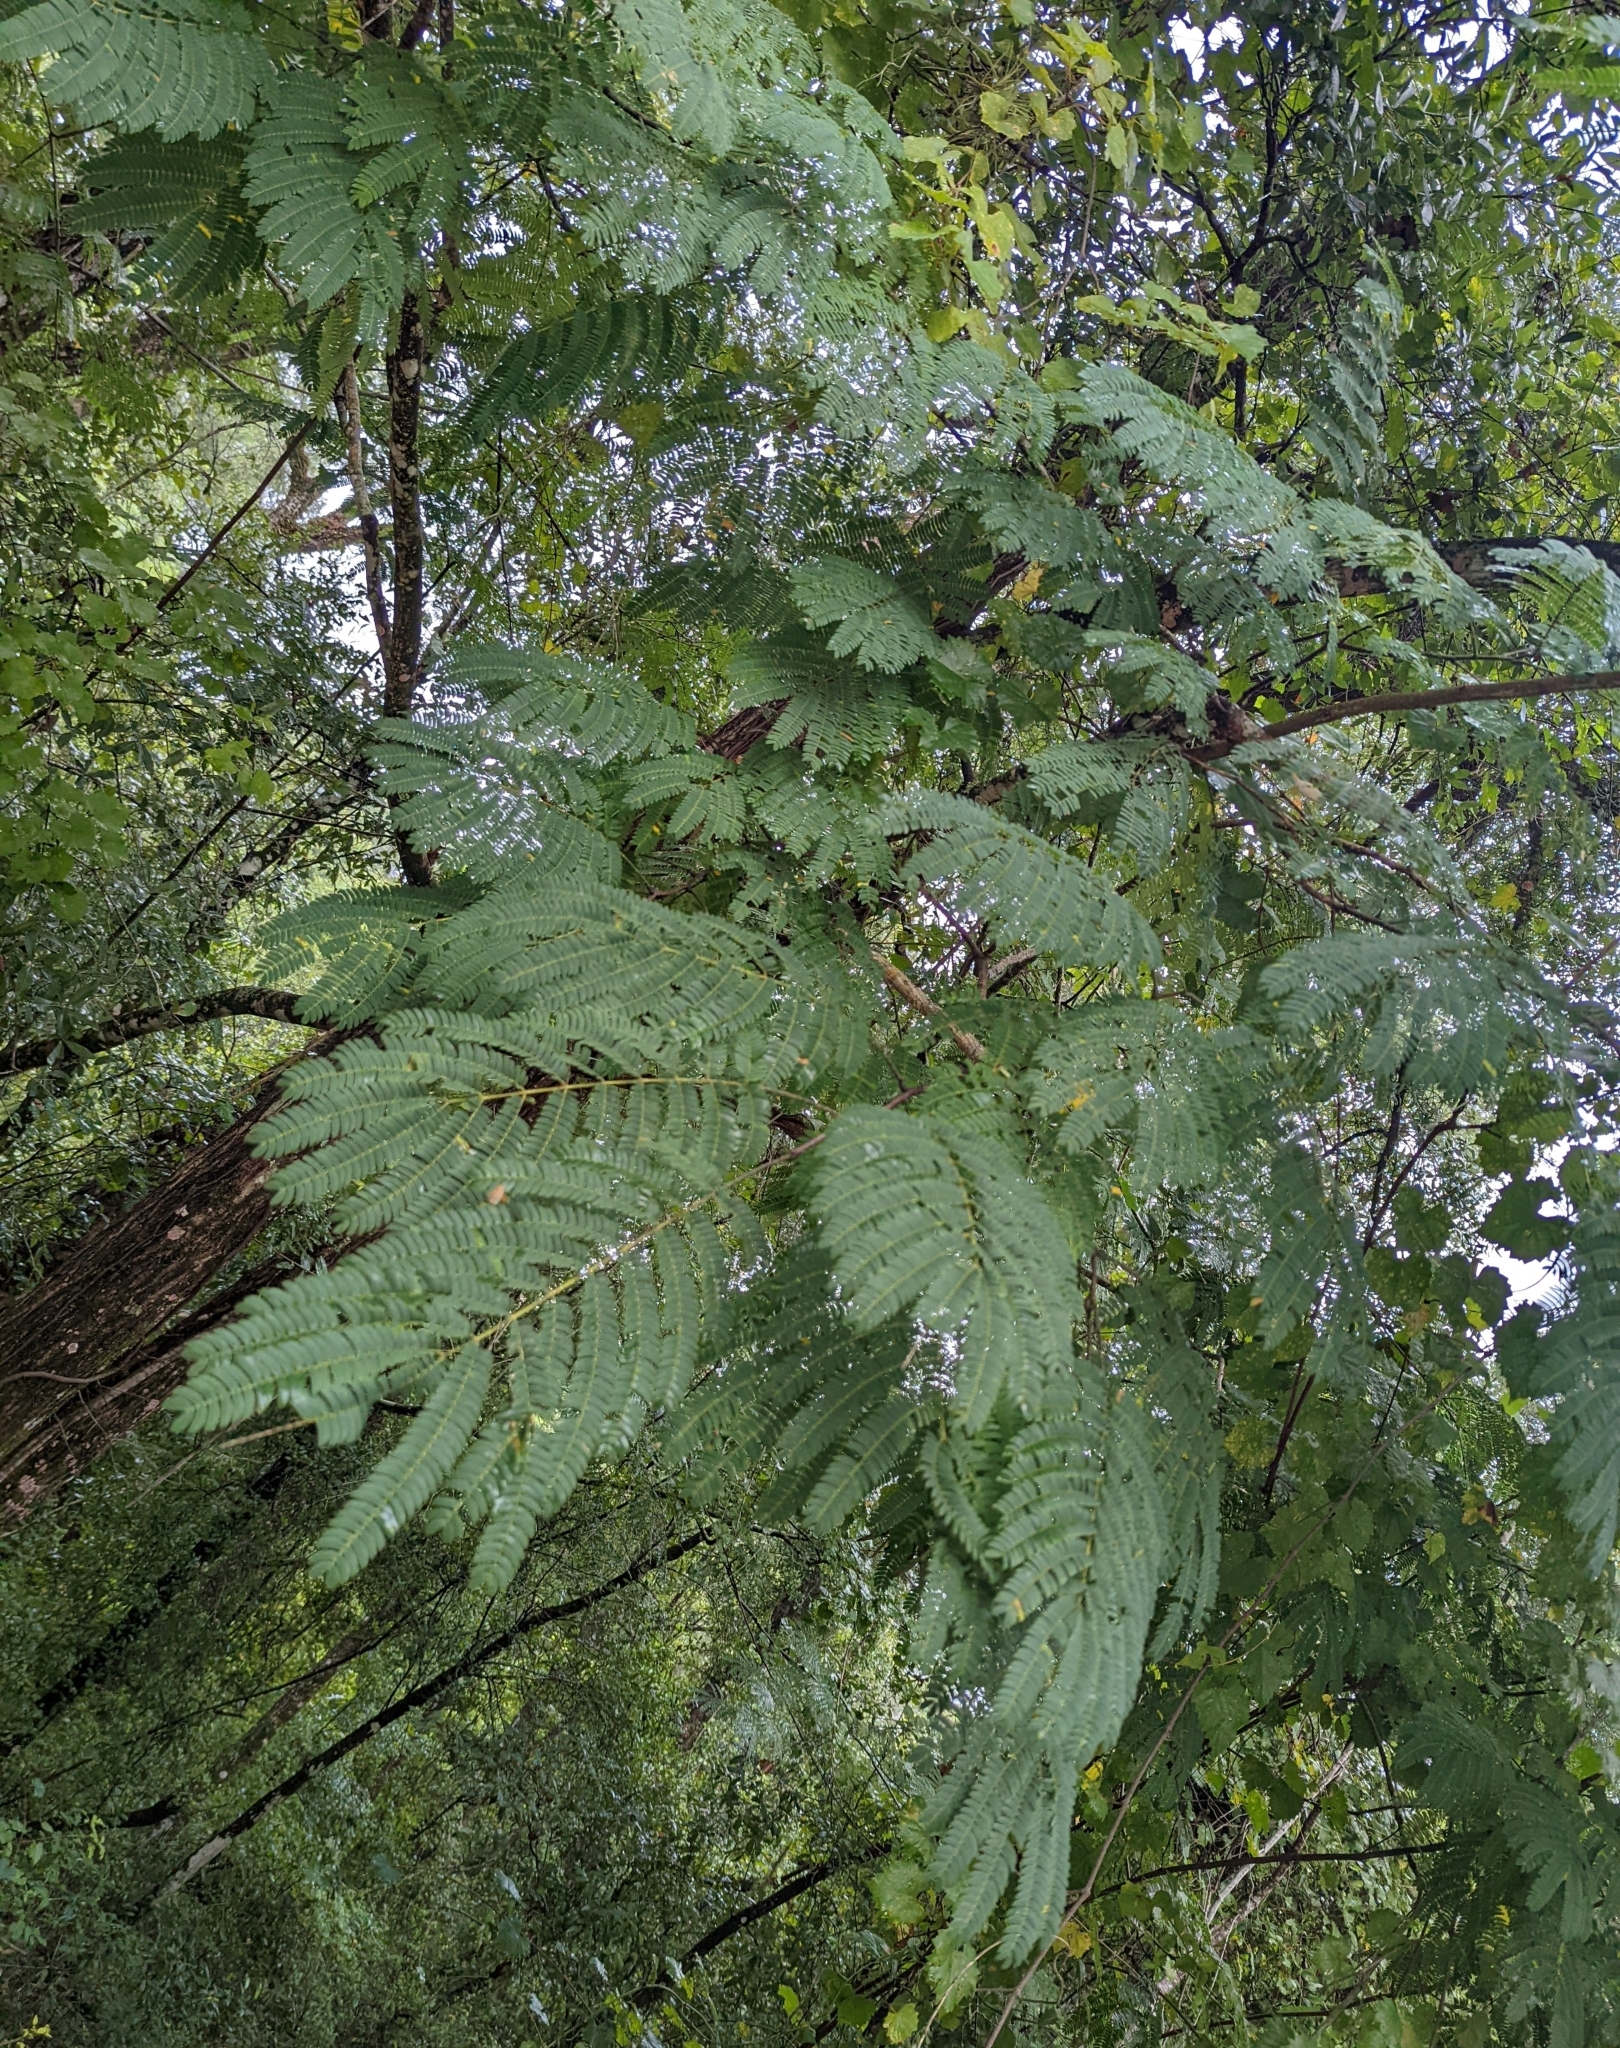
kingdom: Plantae
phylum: Tracheophyta
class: Magnoliopsida
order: Fabales
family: Fabaceae
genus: Albizia
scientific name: Albizia julibrissin
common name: Silktree
